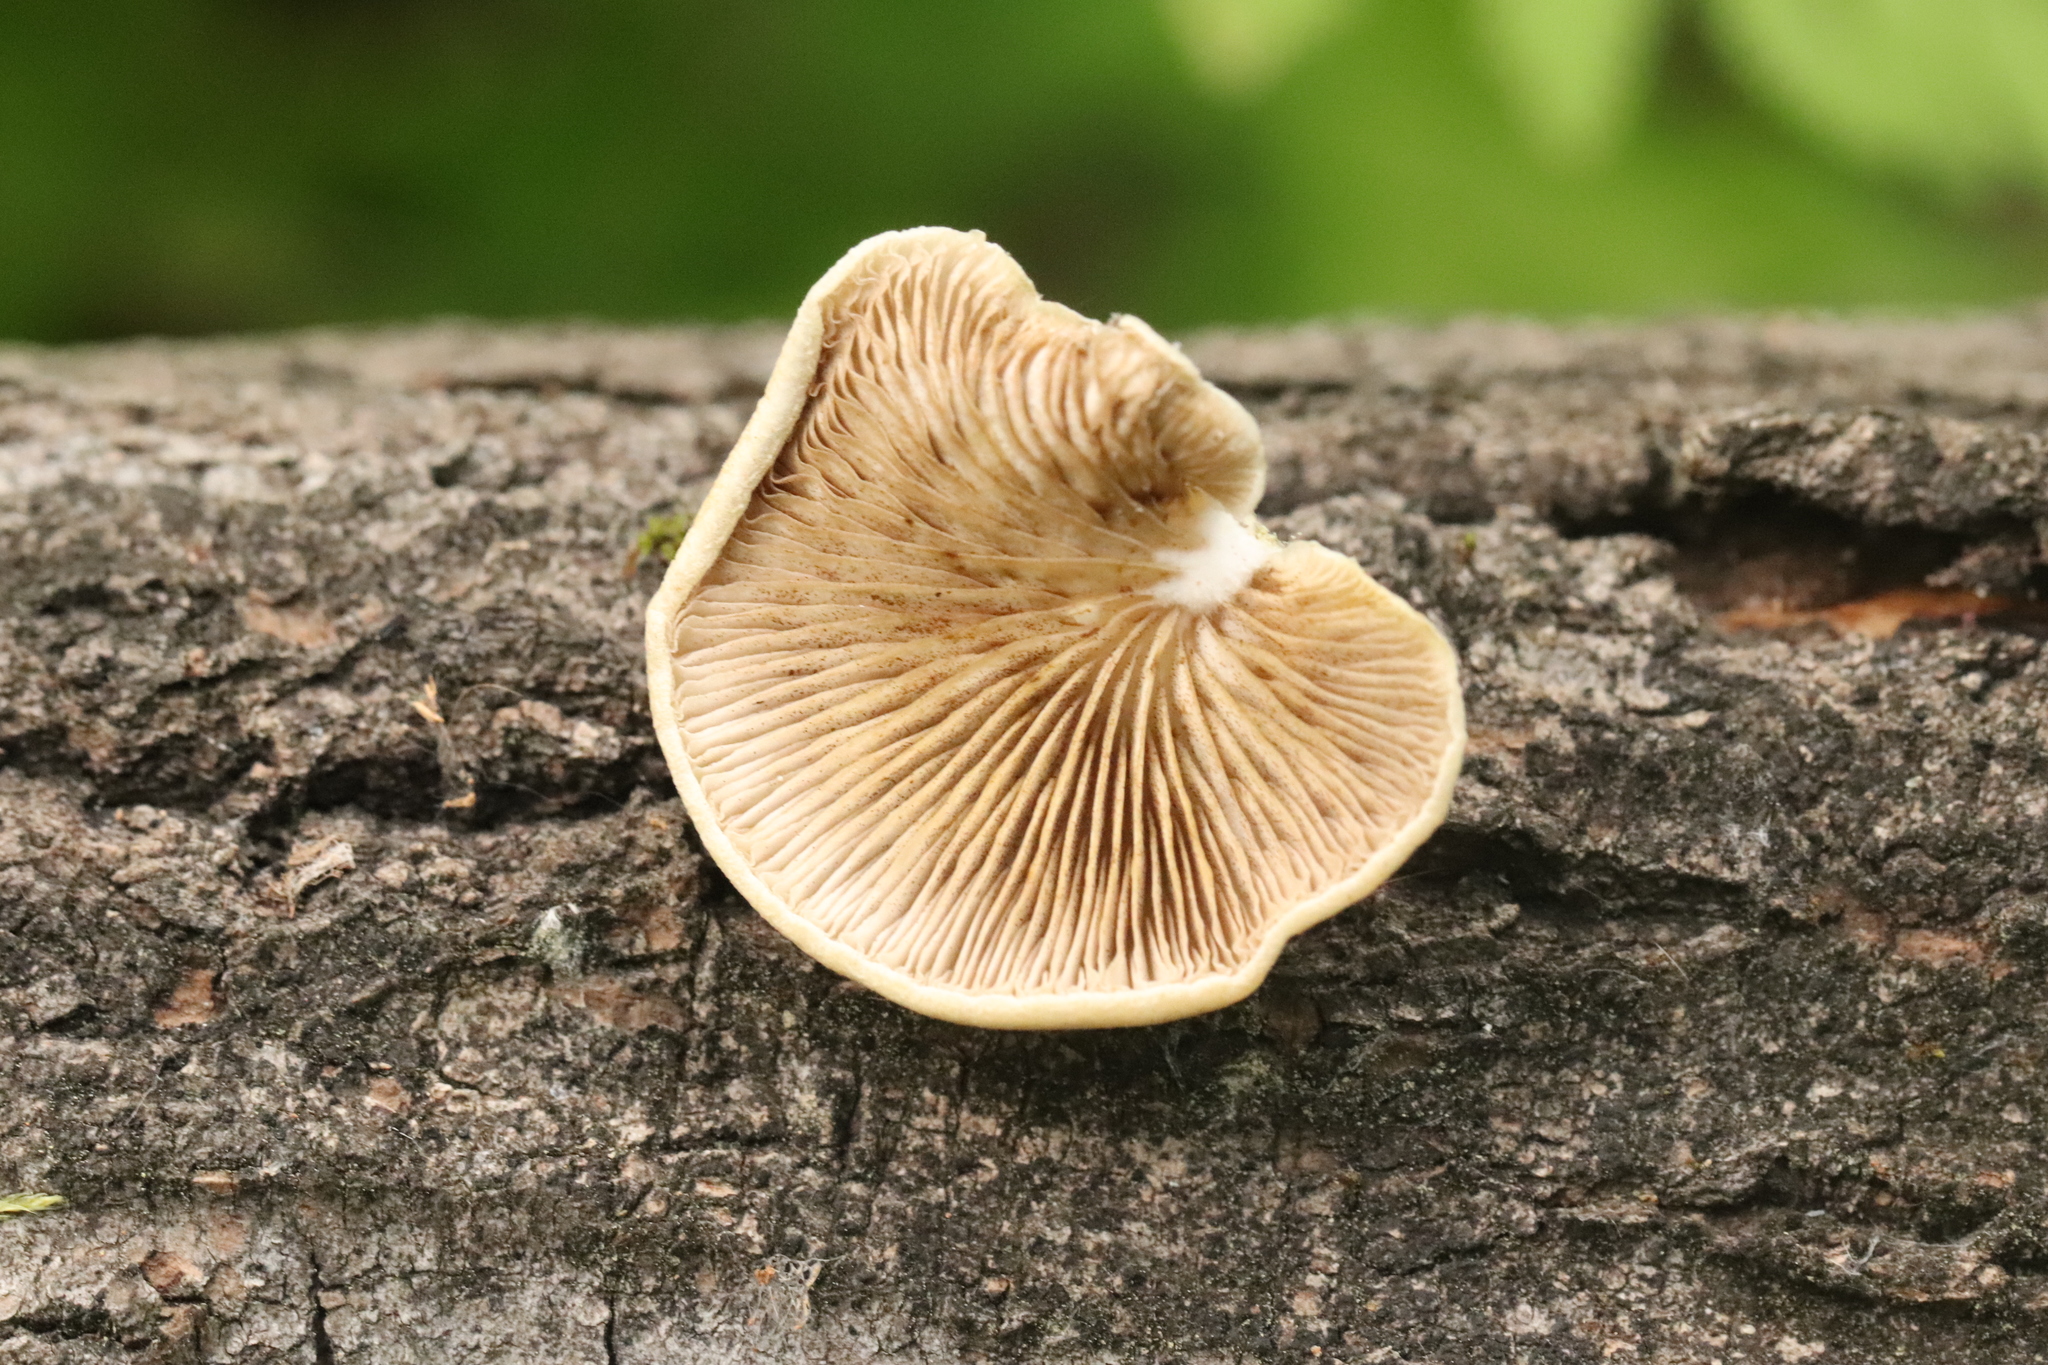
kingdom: Fungi
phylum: Basidiomycota
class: Agaricomycetes
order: Agaricales
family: Crepidotaceae
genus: Crepidotus
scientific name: Crepidotus mollis
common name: Peeling oysterling
